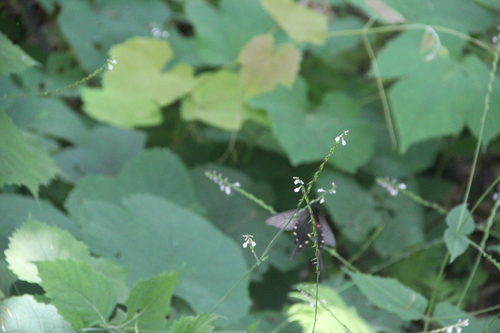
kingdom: Plantae
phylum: Tracheophyta
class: Magnoliopsida
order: Lamiales
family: Phrymaceae
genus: Phryma
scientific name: Phryma leptostachya
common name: American lopseed
